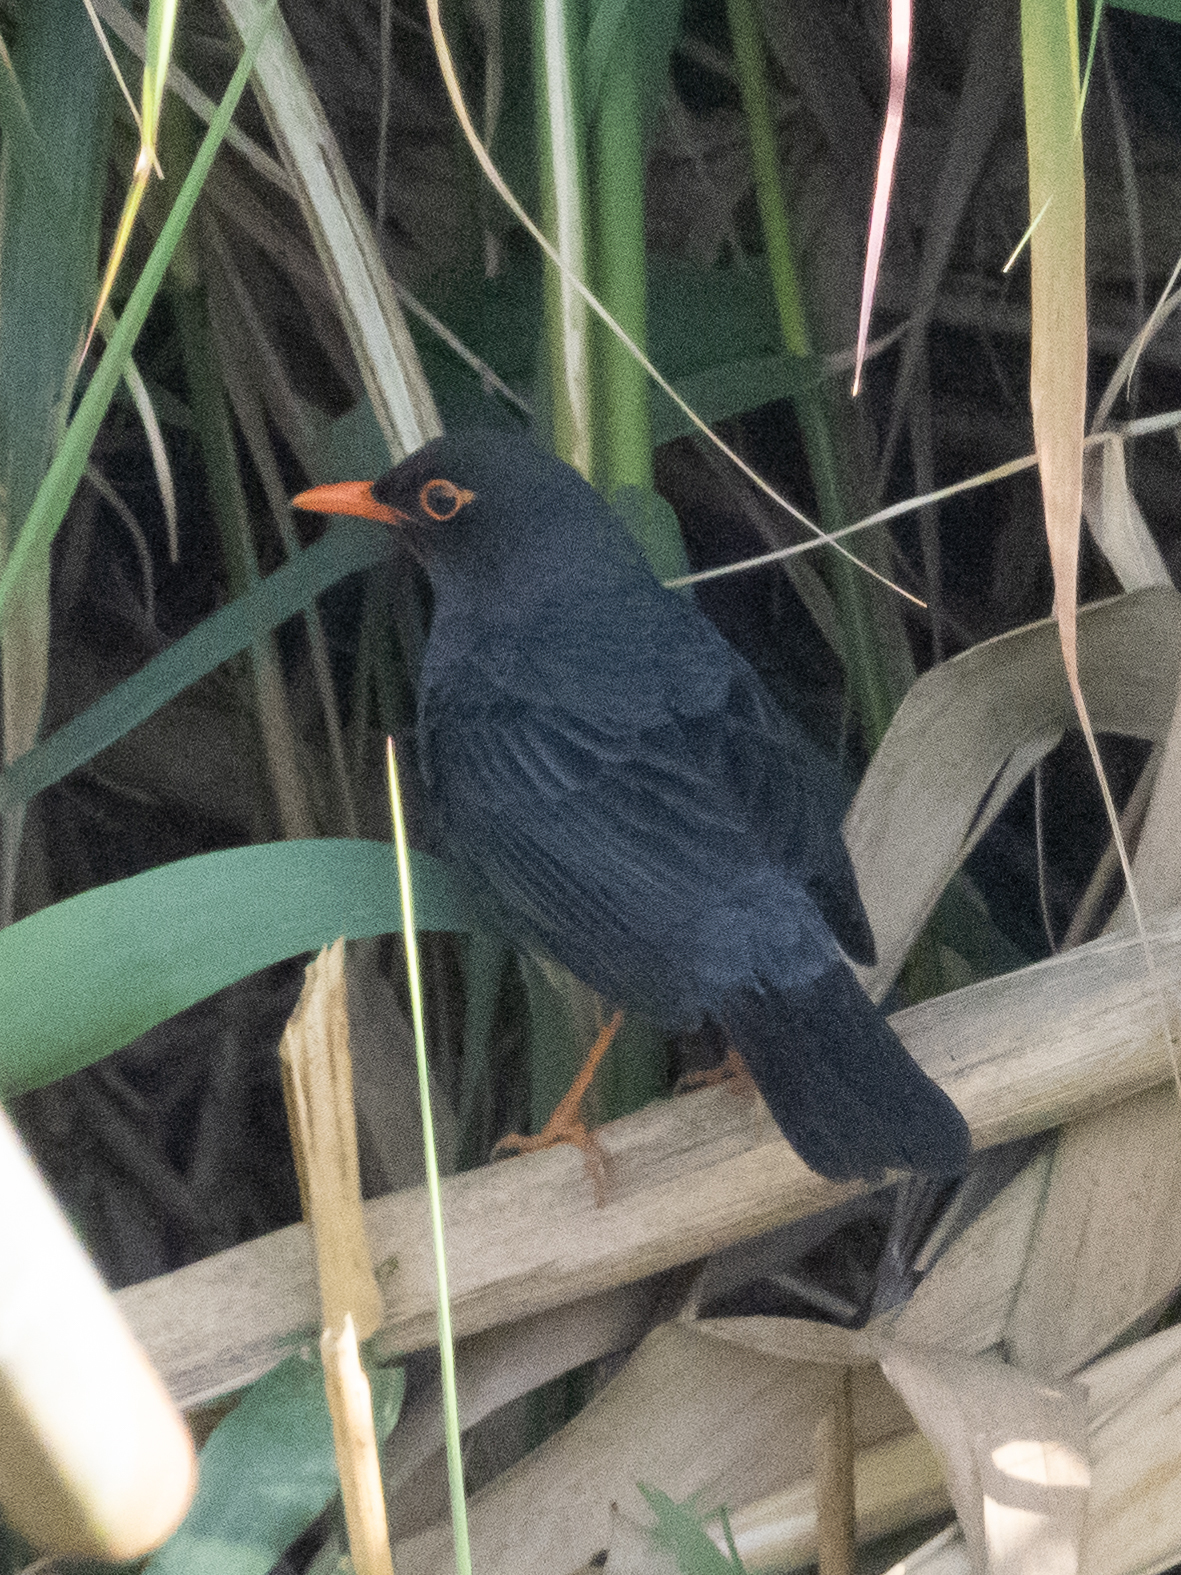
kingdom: Animalia
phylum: Chordata
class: Aves
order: Passeriformes
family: Turdidae
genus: Turdus
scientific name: Turdus simillimus
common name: Indian blackbird
